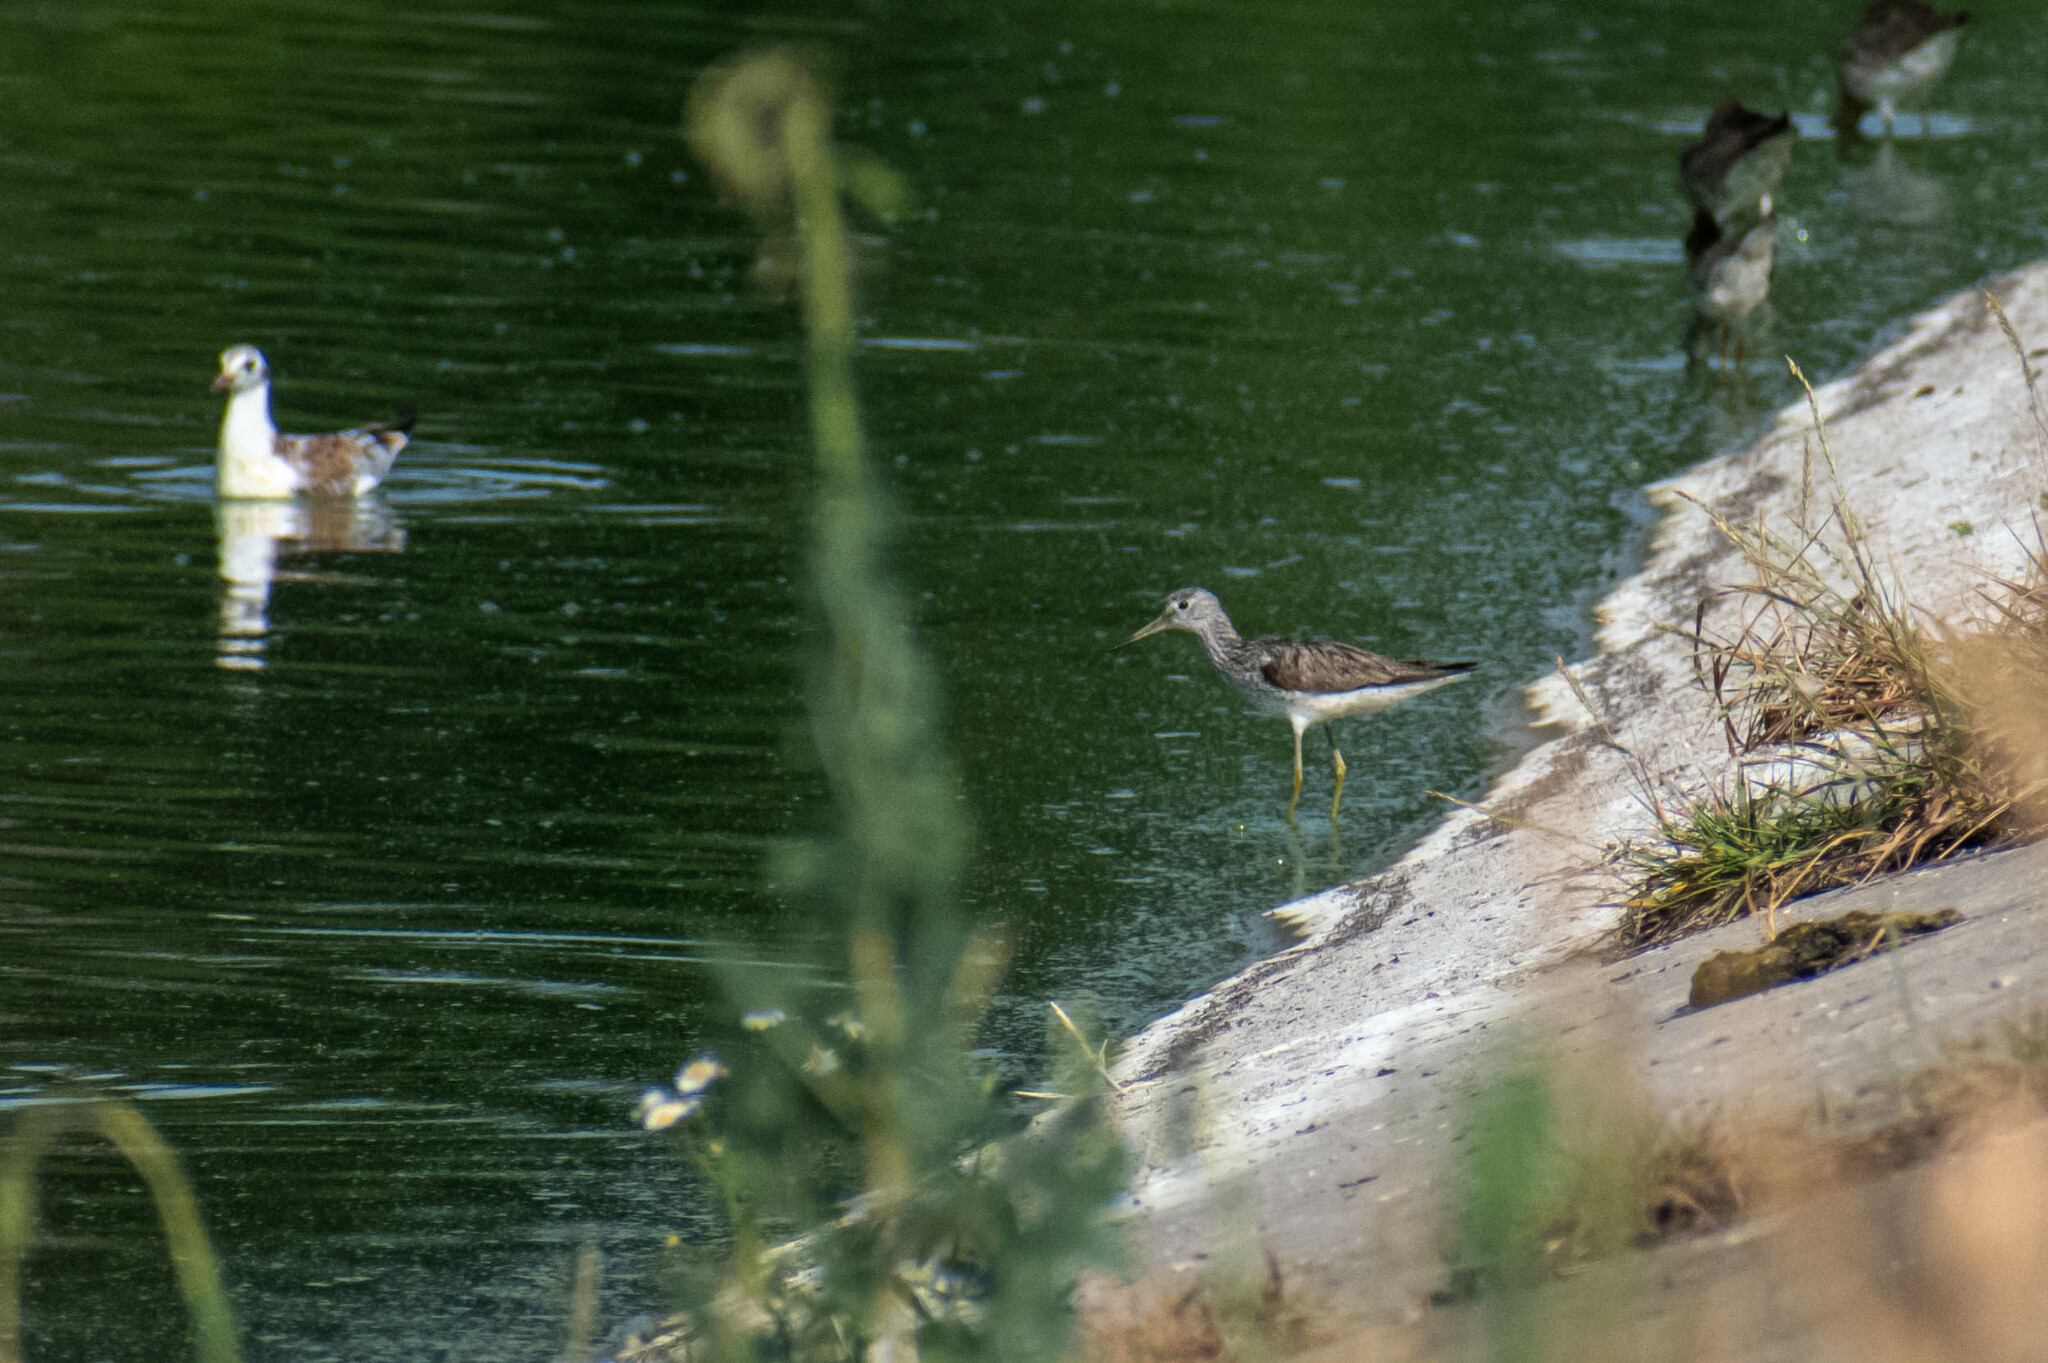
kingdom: Animalia
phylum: Chordata
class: Aves
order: Charadriiformes
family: Scolopacidae
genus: Tringa
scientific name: Tringa nebularia
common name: Common greenshank
